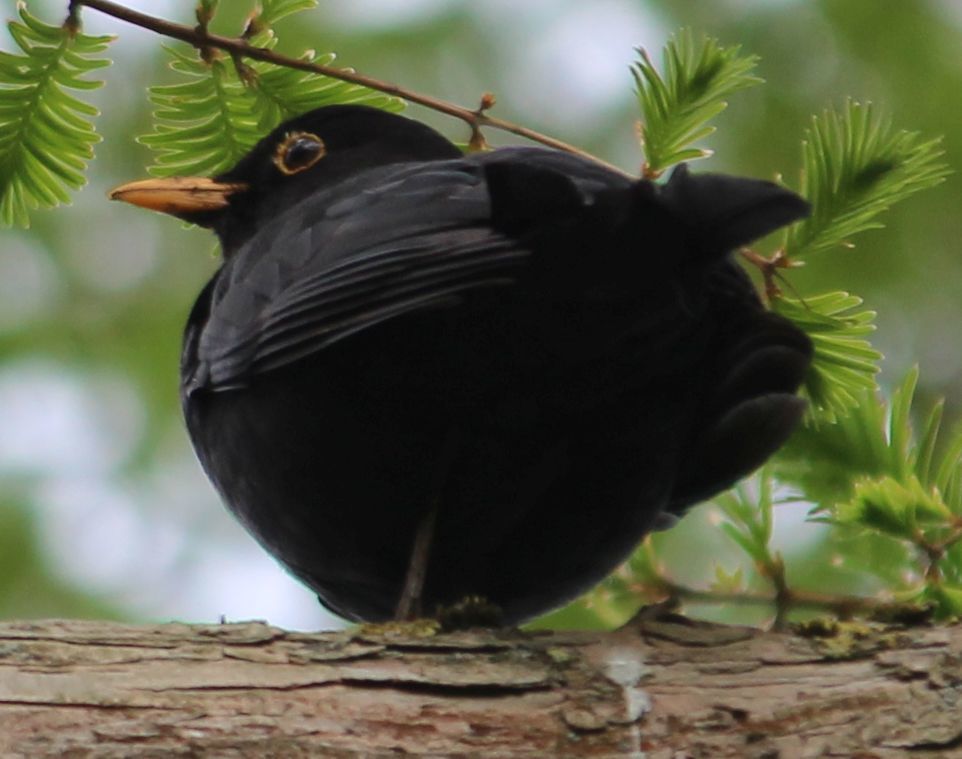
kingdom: Animalia
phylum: Chordata
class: Aves
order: Passeriformes
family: Turdidae
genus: Turdus
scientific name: Turdus merula
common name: Common blackbird
